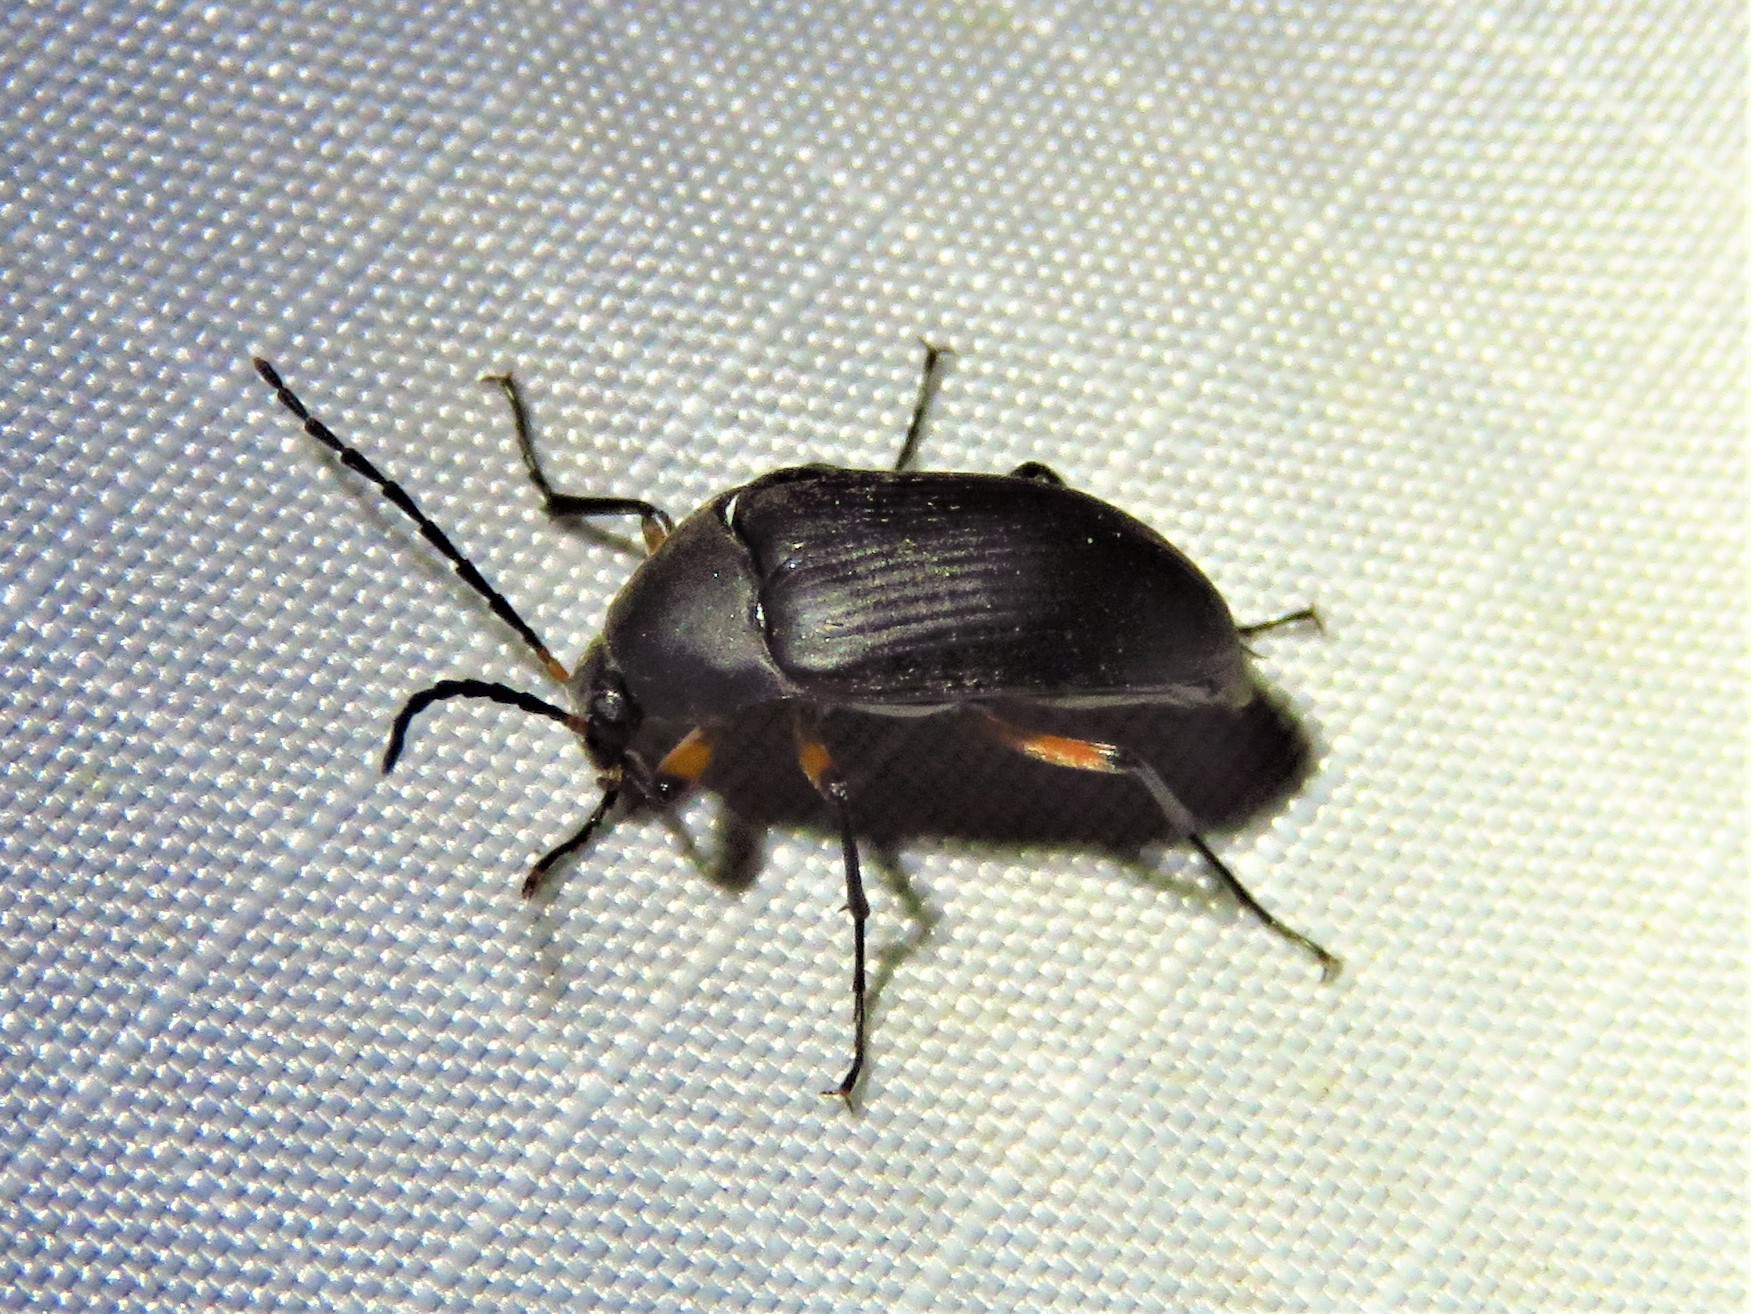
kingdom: Animalia
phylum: Arthropoda
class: Insecta
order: Coleoptera
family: Tenebrionidae
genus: Androchirus
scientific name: Androchirus femoralis
